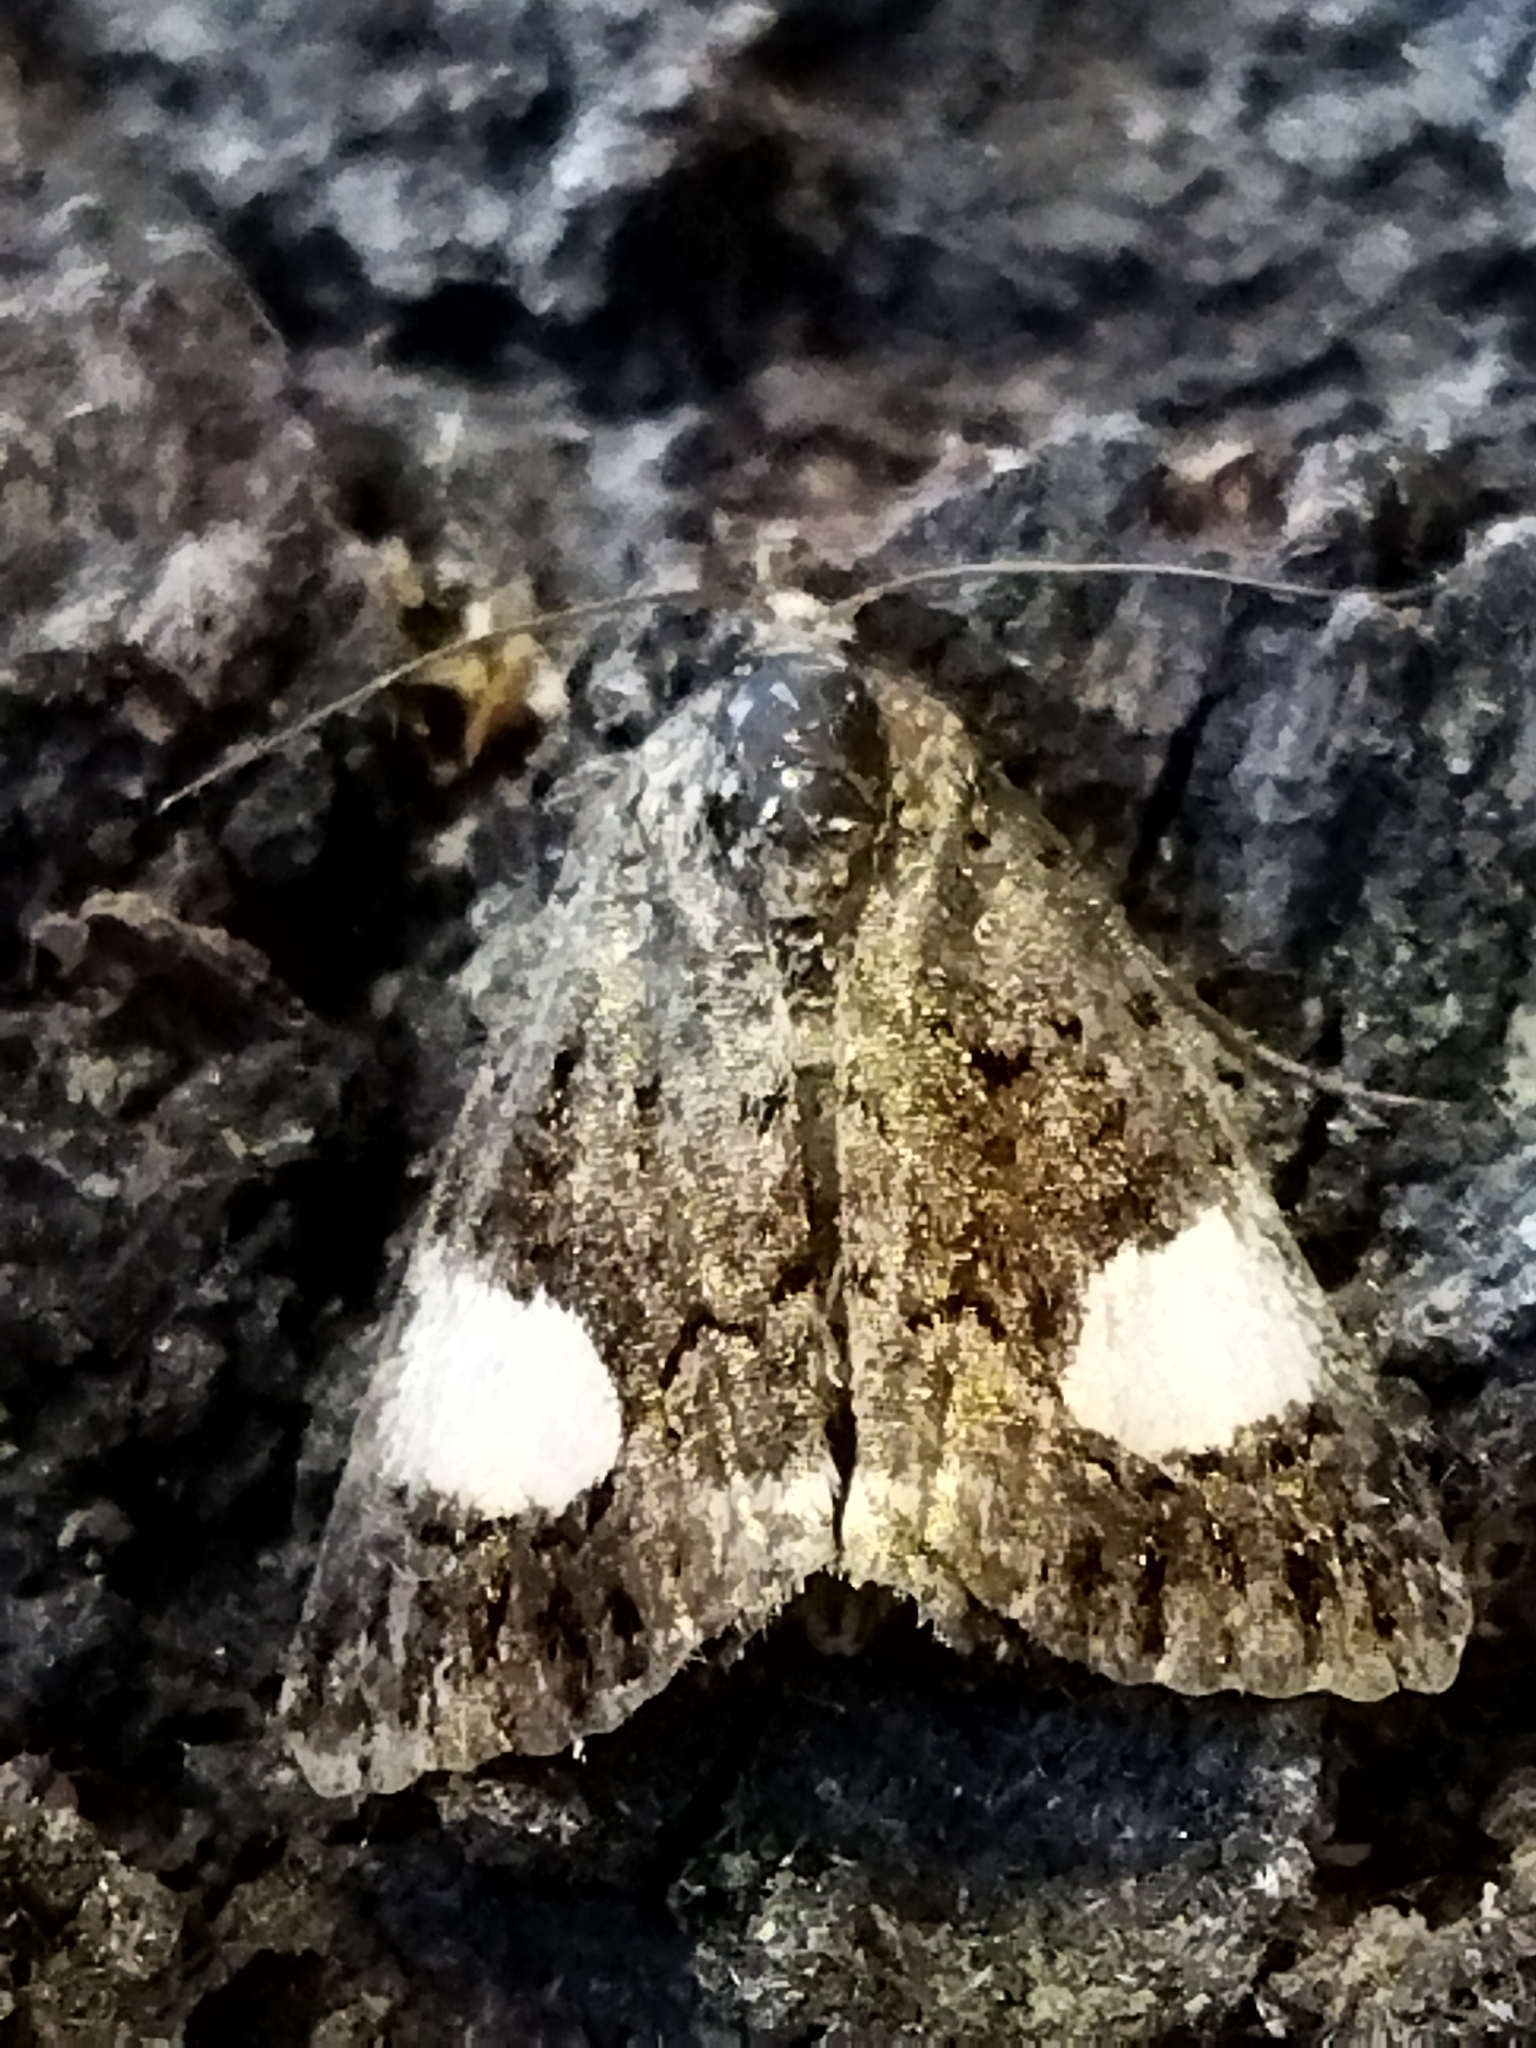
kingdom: Animalia
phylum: Arthropoda
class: Insecta
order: Lepidoptera
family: Erebidae
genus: Tyta
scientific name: Tyta luctuosa
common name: Four-spotted
